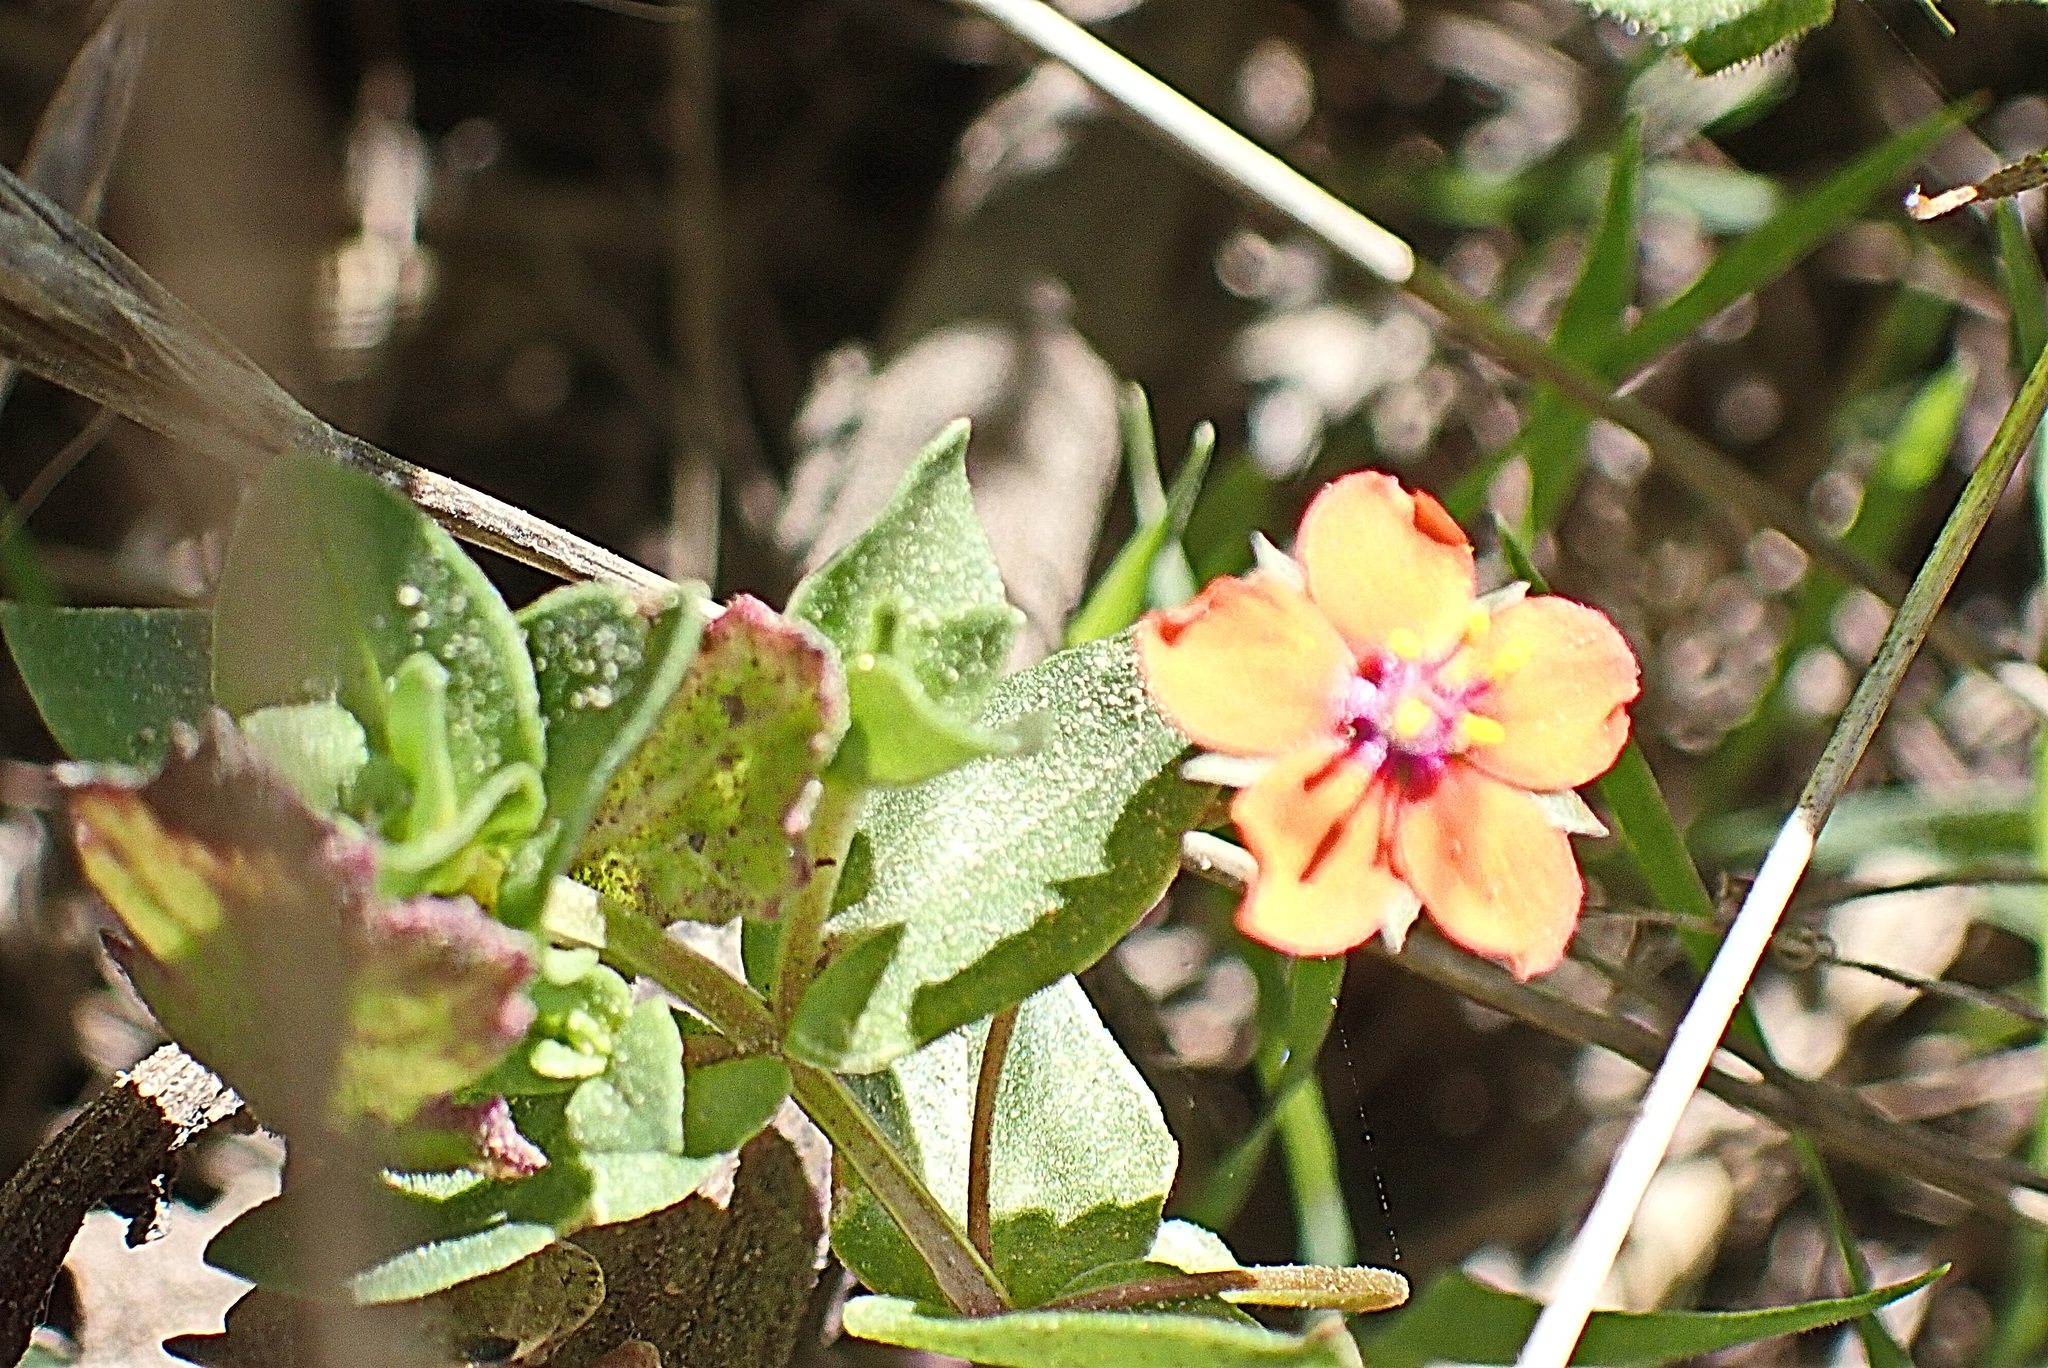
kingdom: Plantae
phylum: Tracheophyta
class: Magnoliopsida
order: Ericales
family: Primulaceae
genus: Lysimachia
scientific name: Lysimachia arvensis
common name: Scarlet pimpernel
